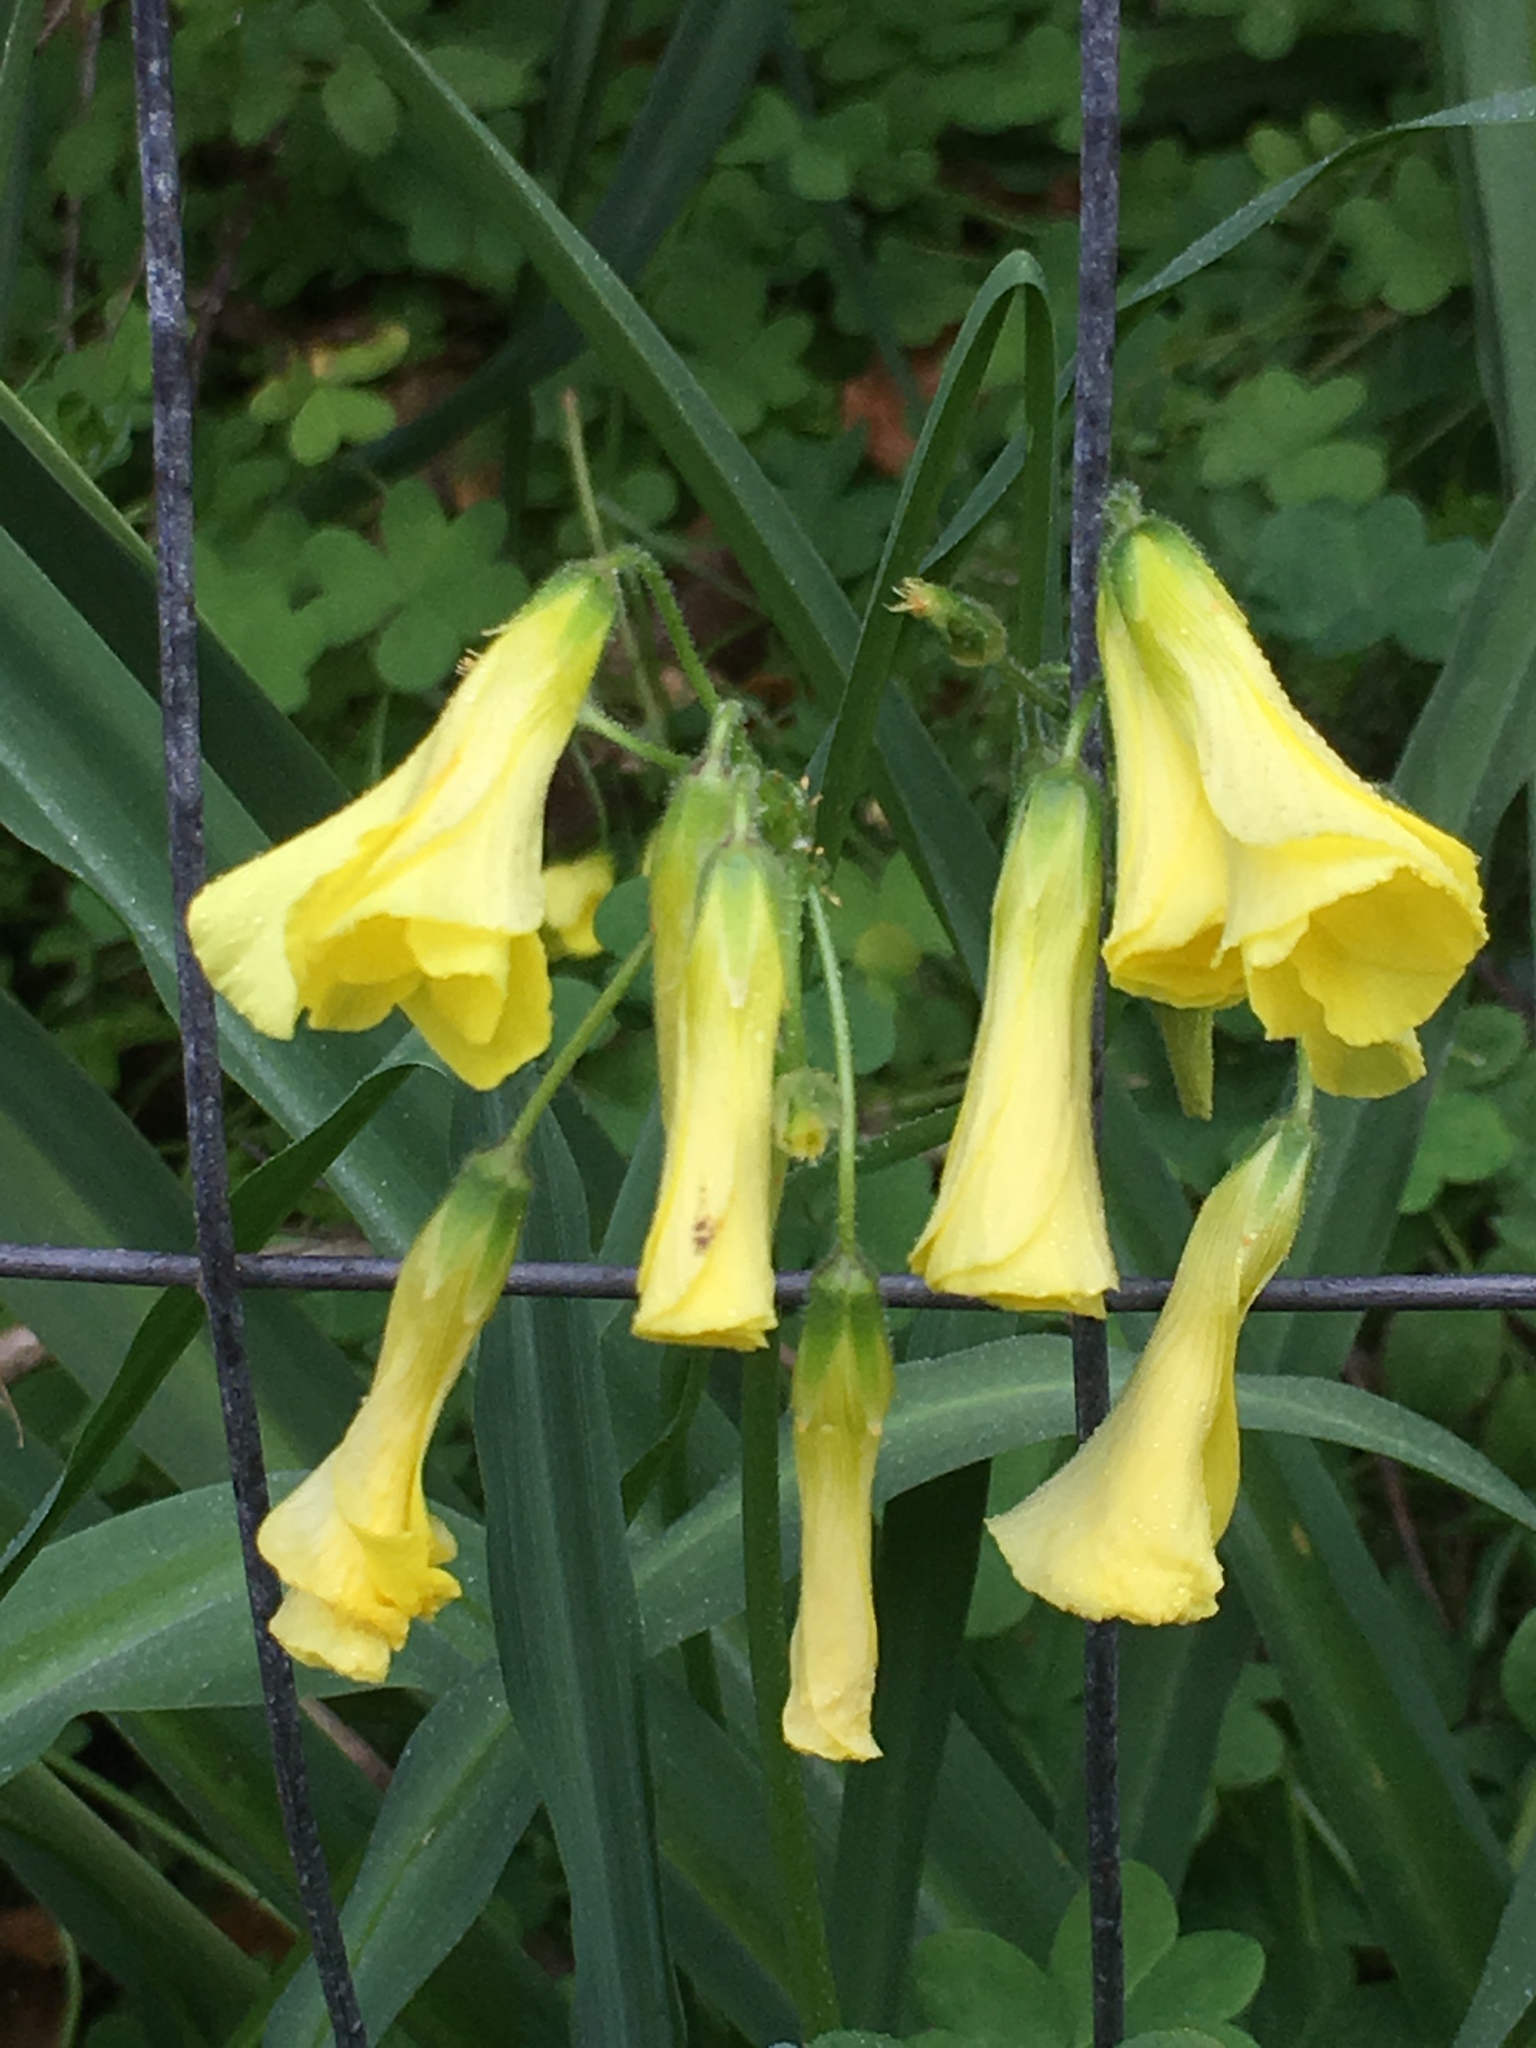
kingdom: Plantae
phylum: Tracheophyta
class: Magnoliopsida
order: Oxalidales
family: Oxalidaceae
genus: Oxalis
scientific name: Oxalis pes-caprae
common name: Bermuda-buttercup
